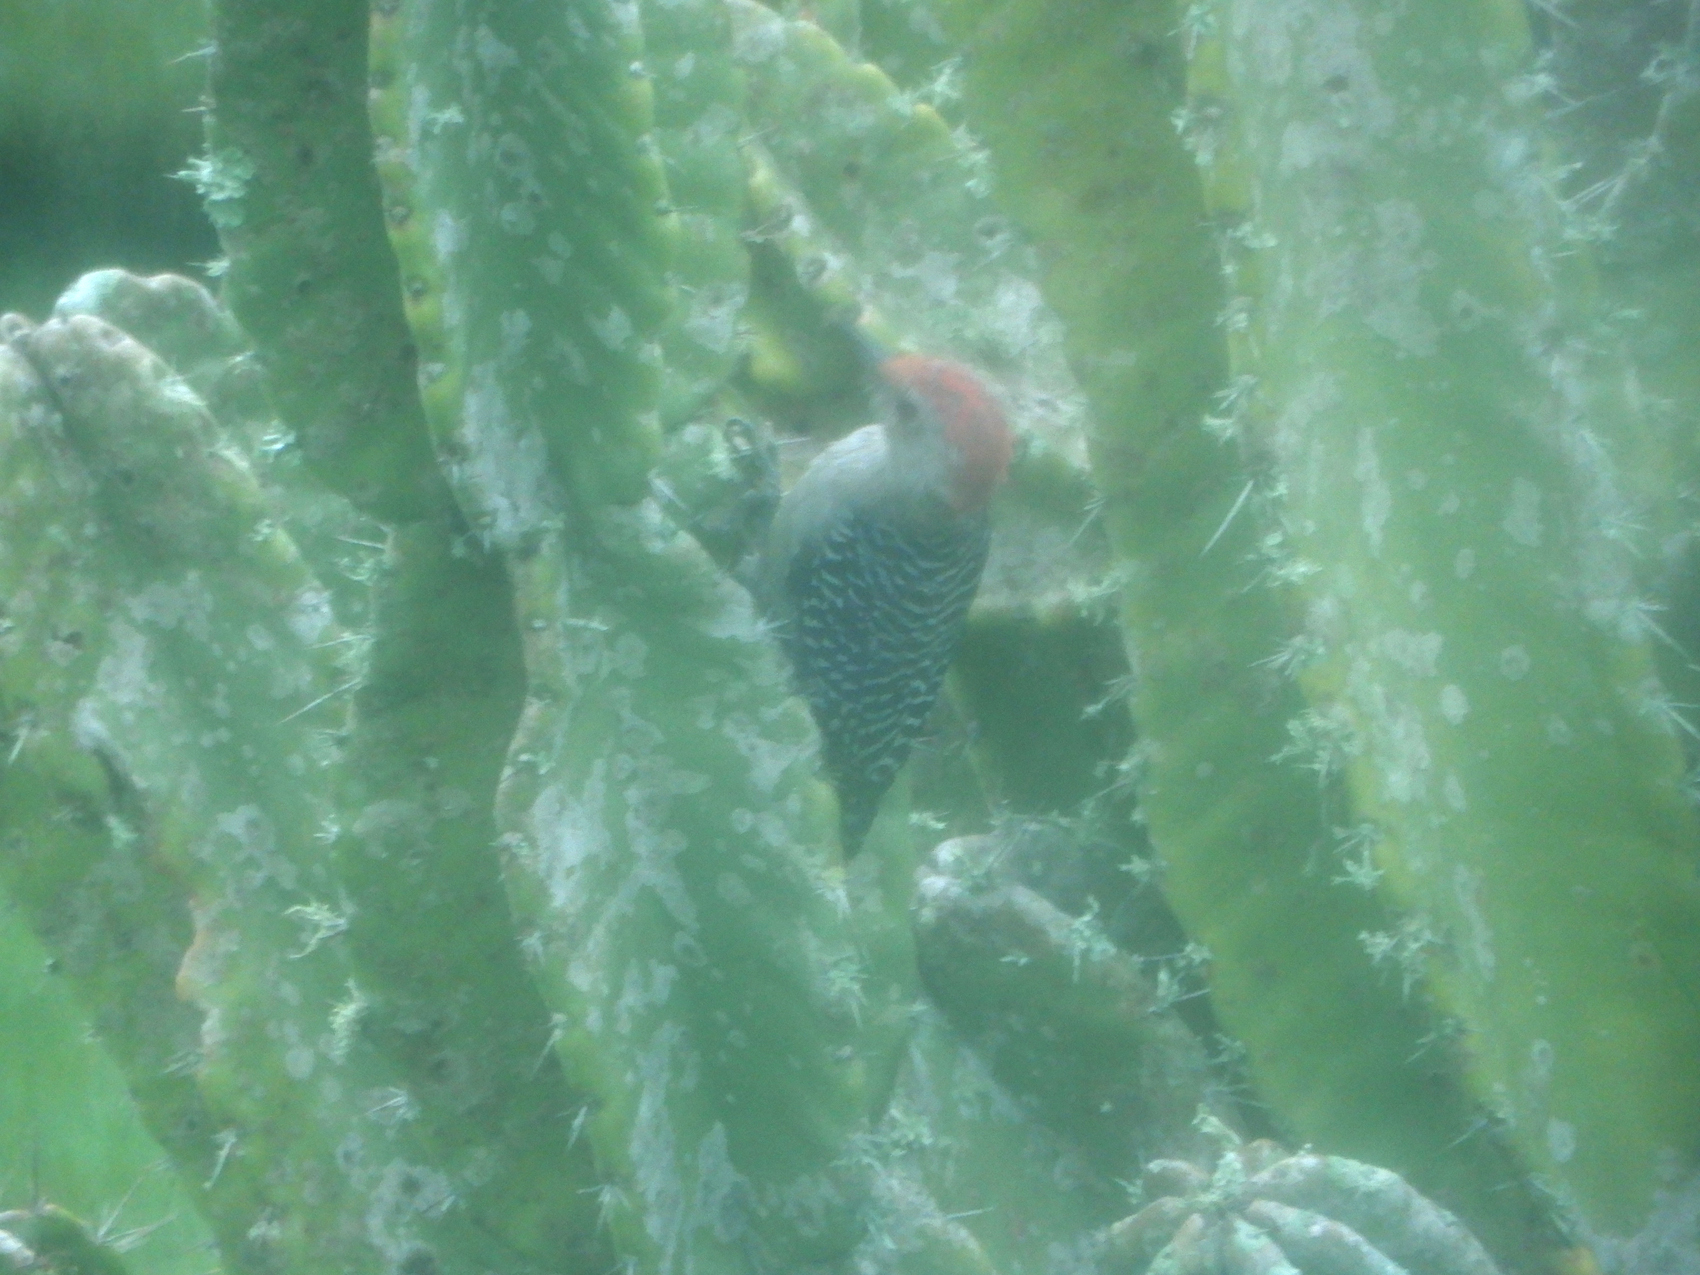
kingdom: Animalia
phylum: Chordata
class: Aves
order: Piciformes
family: Picidae
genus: Melanerpes
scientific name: Melanerpes carolinus
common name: Red-bellied woodpecker
